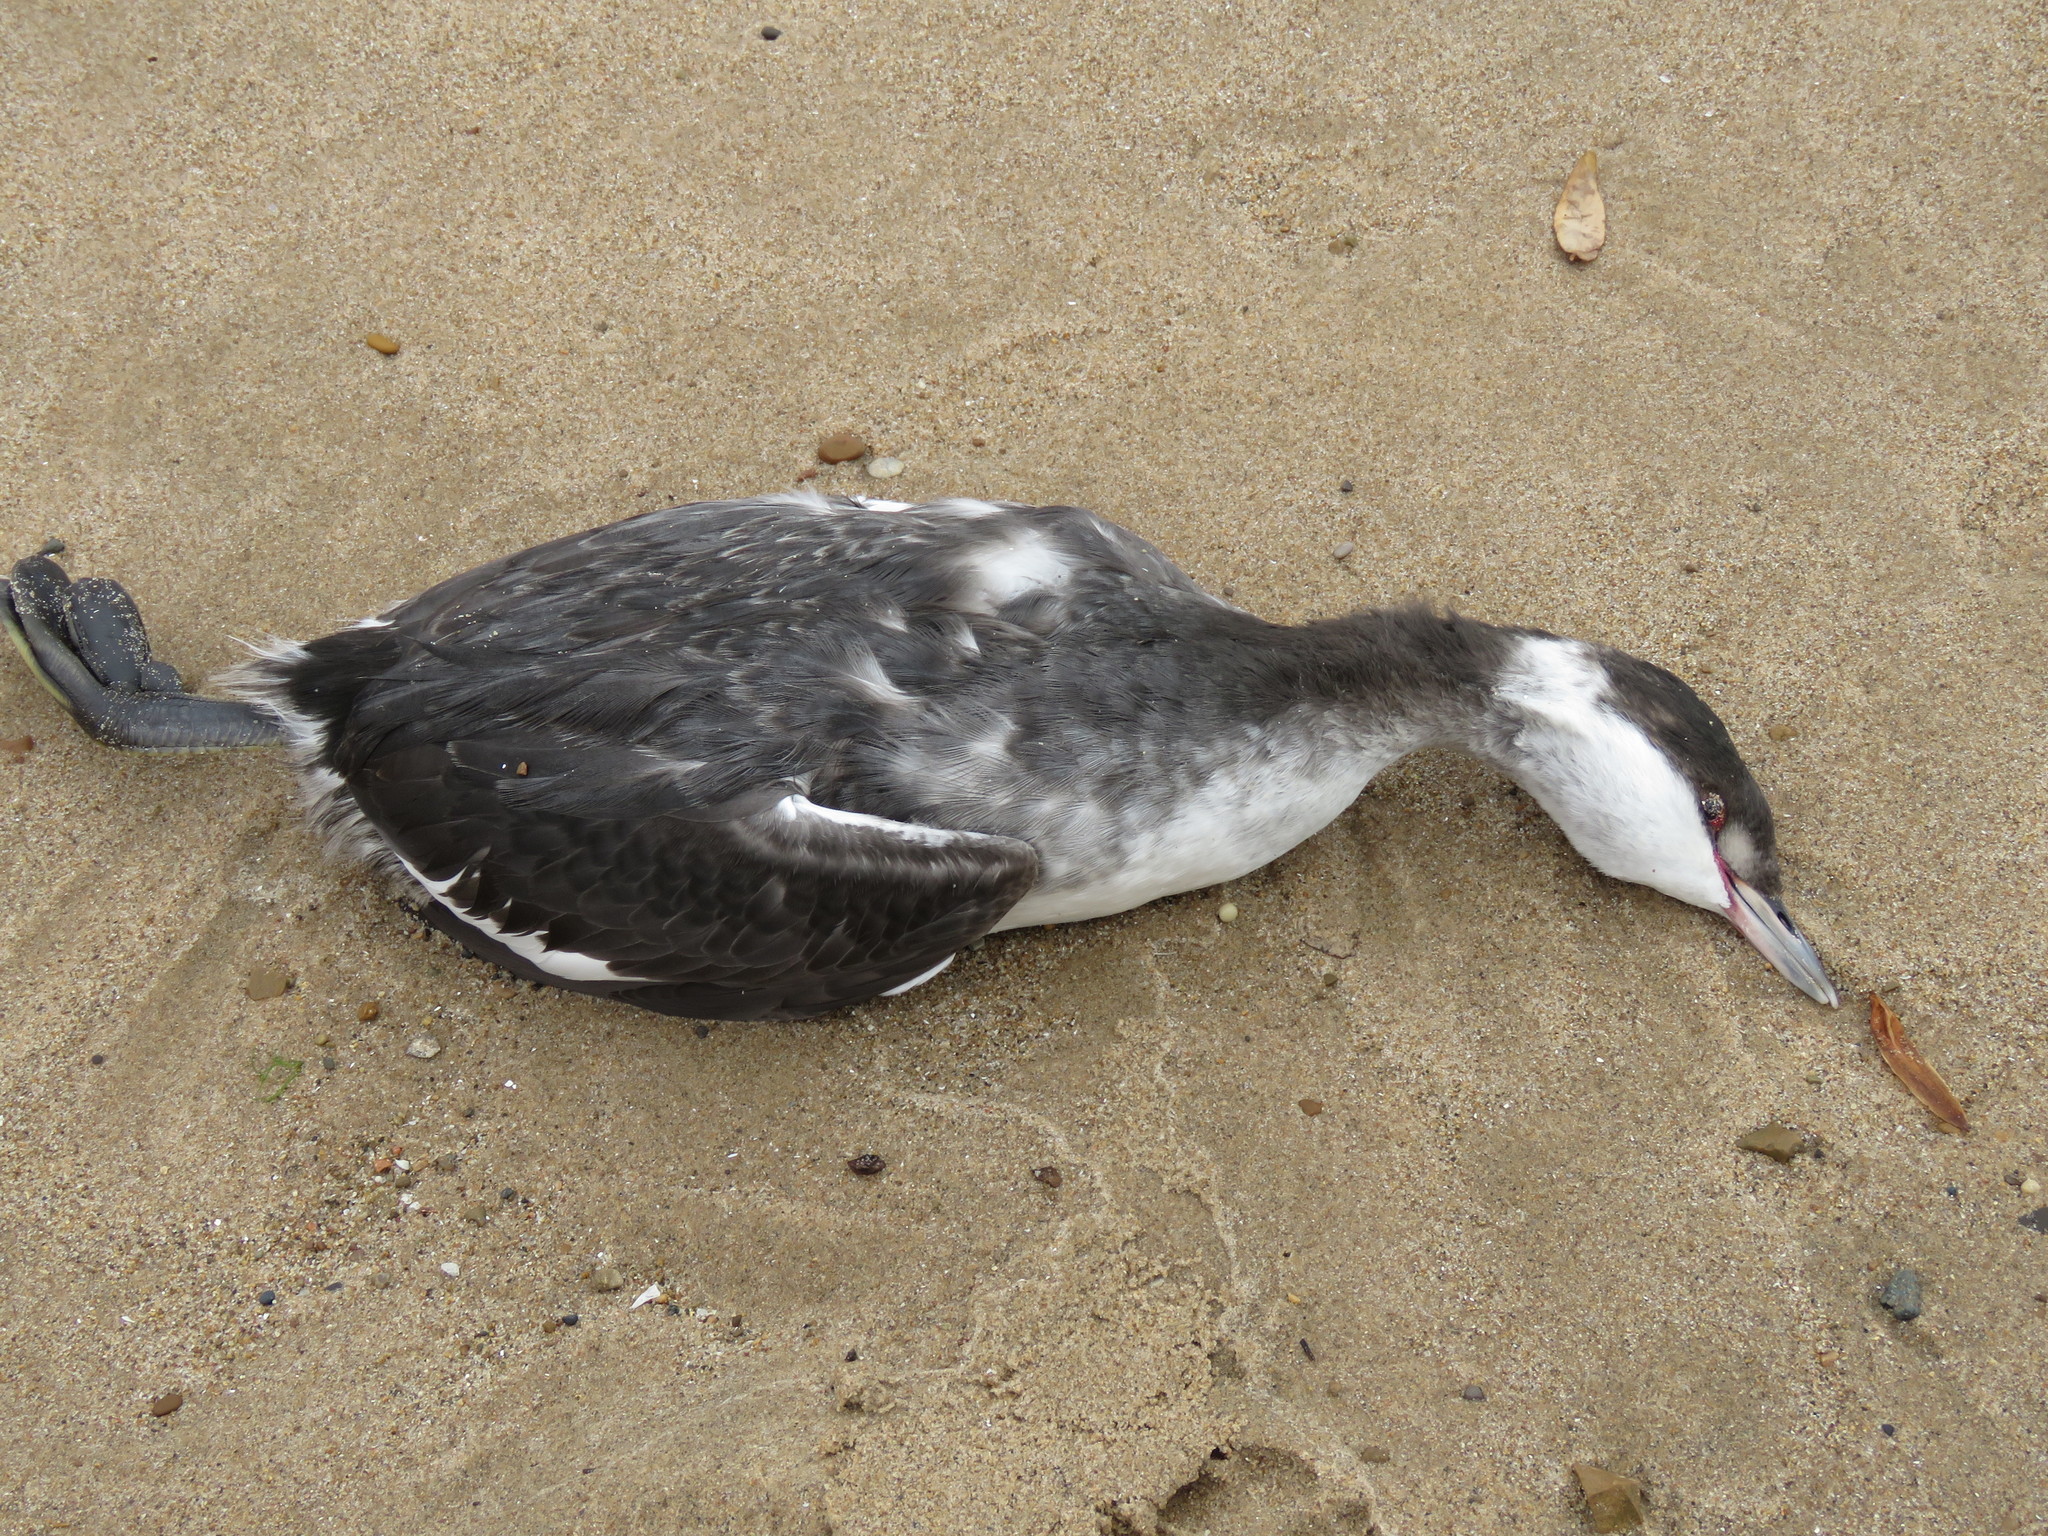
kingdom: Animalia
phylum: Chordata
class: Aves
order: Podicipediformes
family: Podicipedidae
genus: Podiceps
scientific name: Podiceps auritus
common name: Horned grebe
